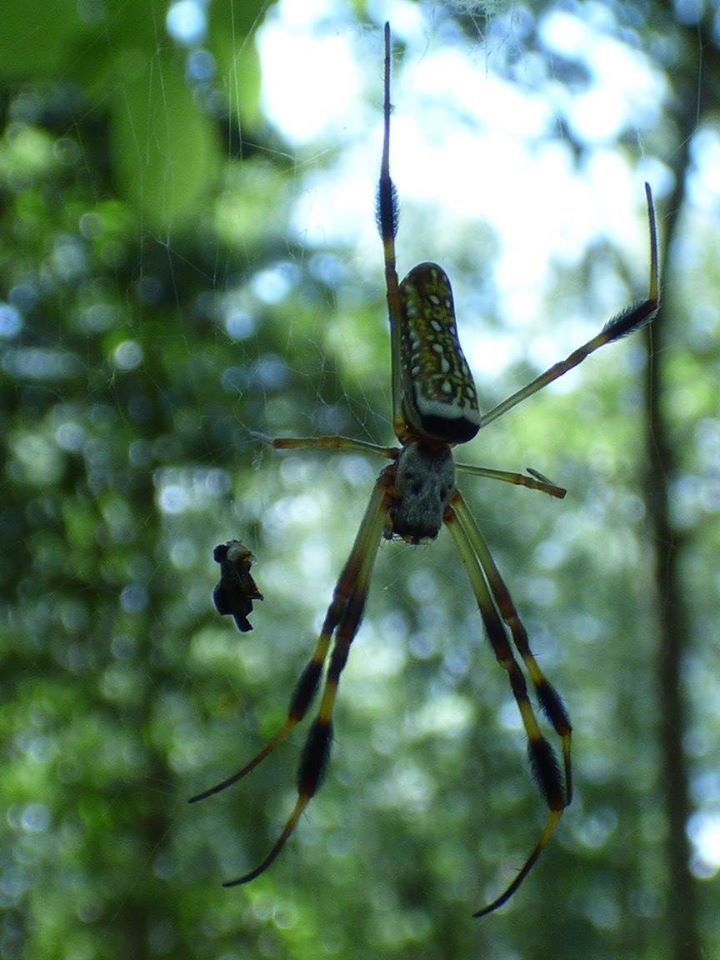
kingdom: Animalia
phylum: Arthropoda
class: Arachnida
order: Araneae
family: Araneidae
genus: Trichonephila
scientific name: Trichonephila clavipes
